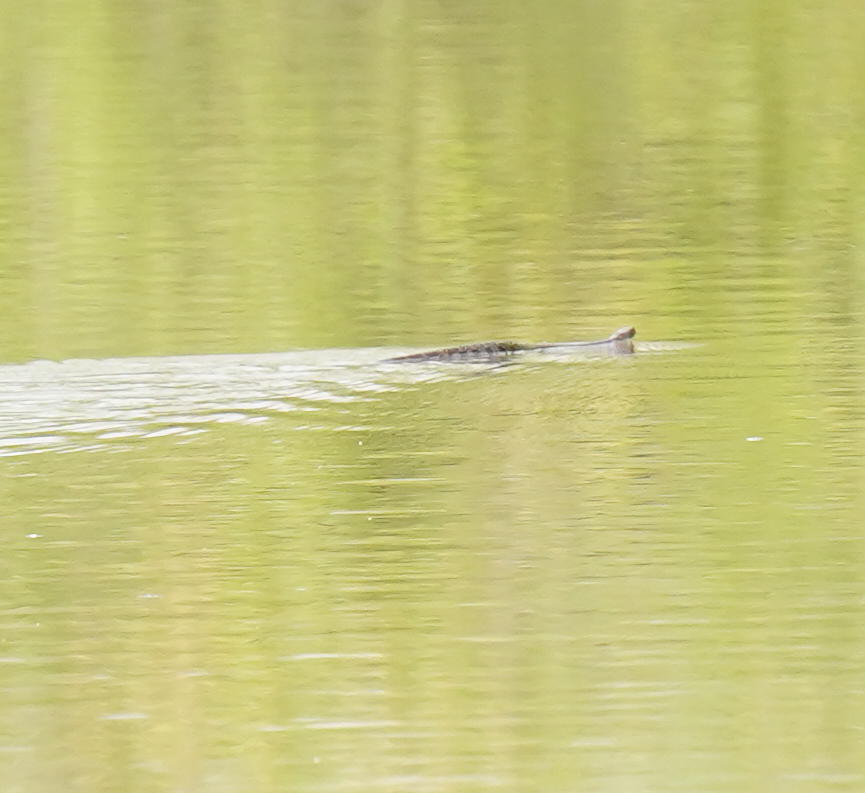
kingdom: Animalia
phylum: Chordata
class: Squamata
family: Colubridae
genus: Nerodia
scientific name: Nerodia sipedon
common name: Northern water snake
